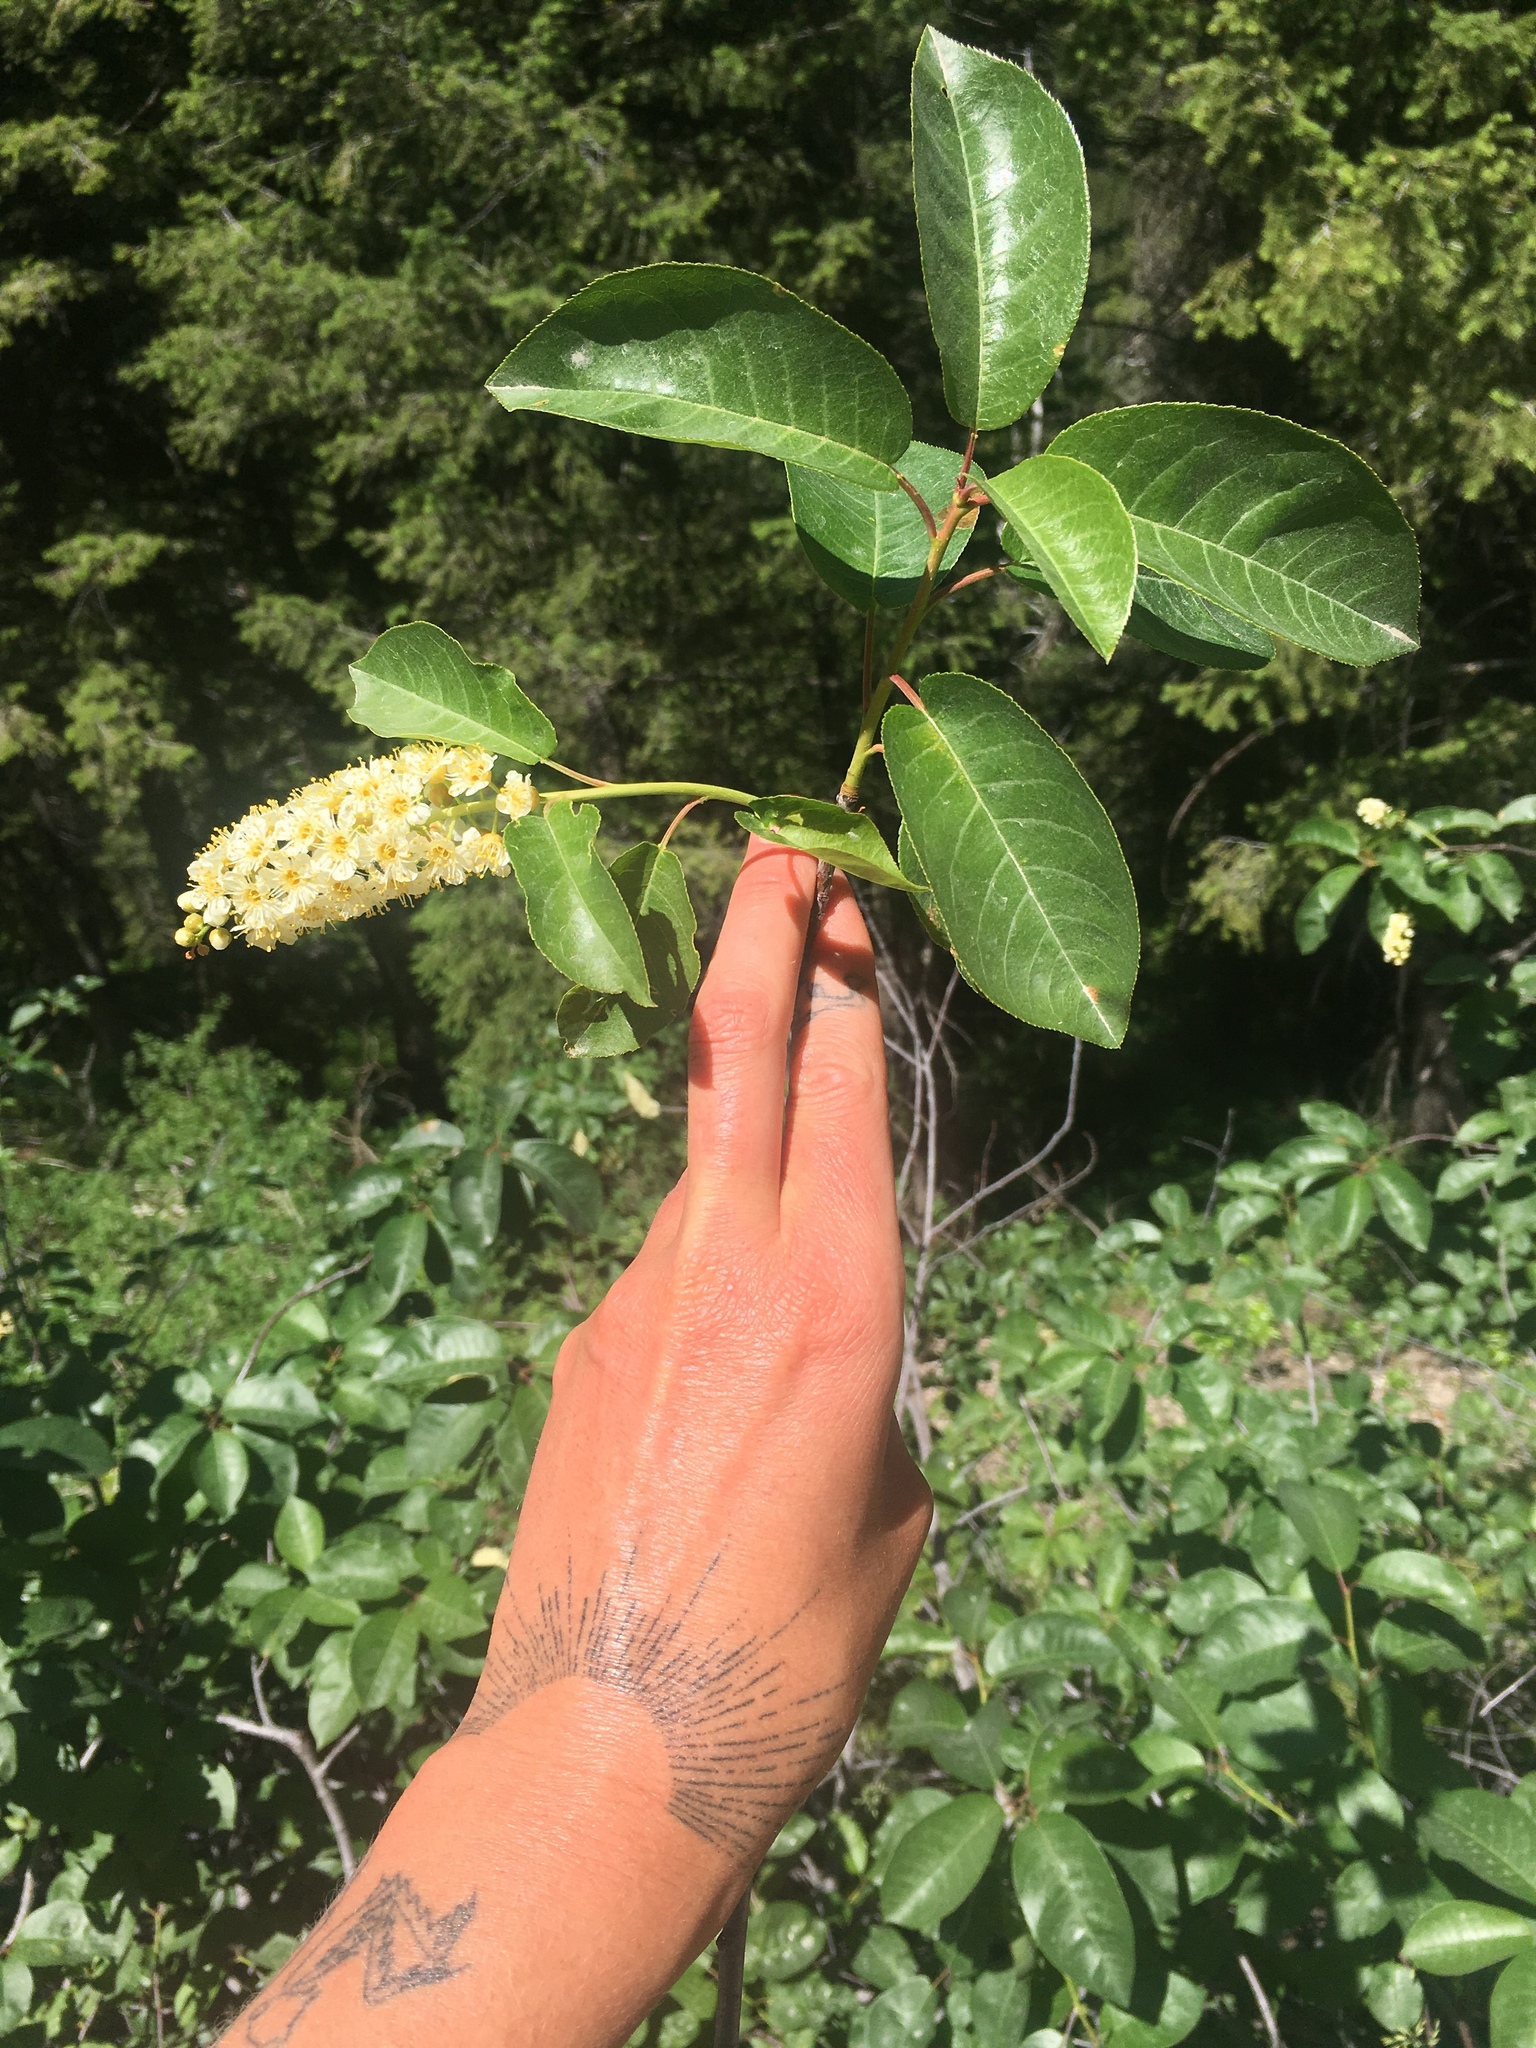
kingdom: Plantae
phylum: Tracheophyta
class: Magnoliopsida
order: Rosales
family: Rosaceae
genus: Prunus
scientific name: Prunus virginiana
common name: Chokecherry
